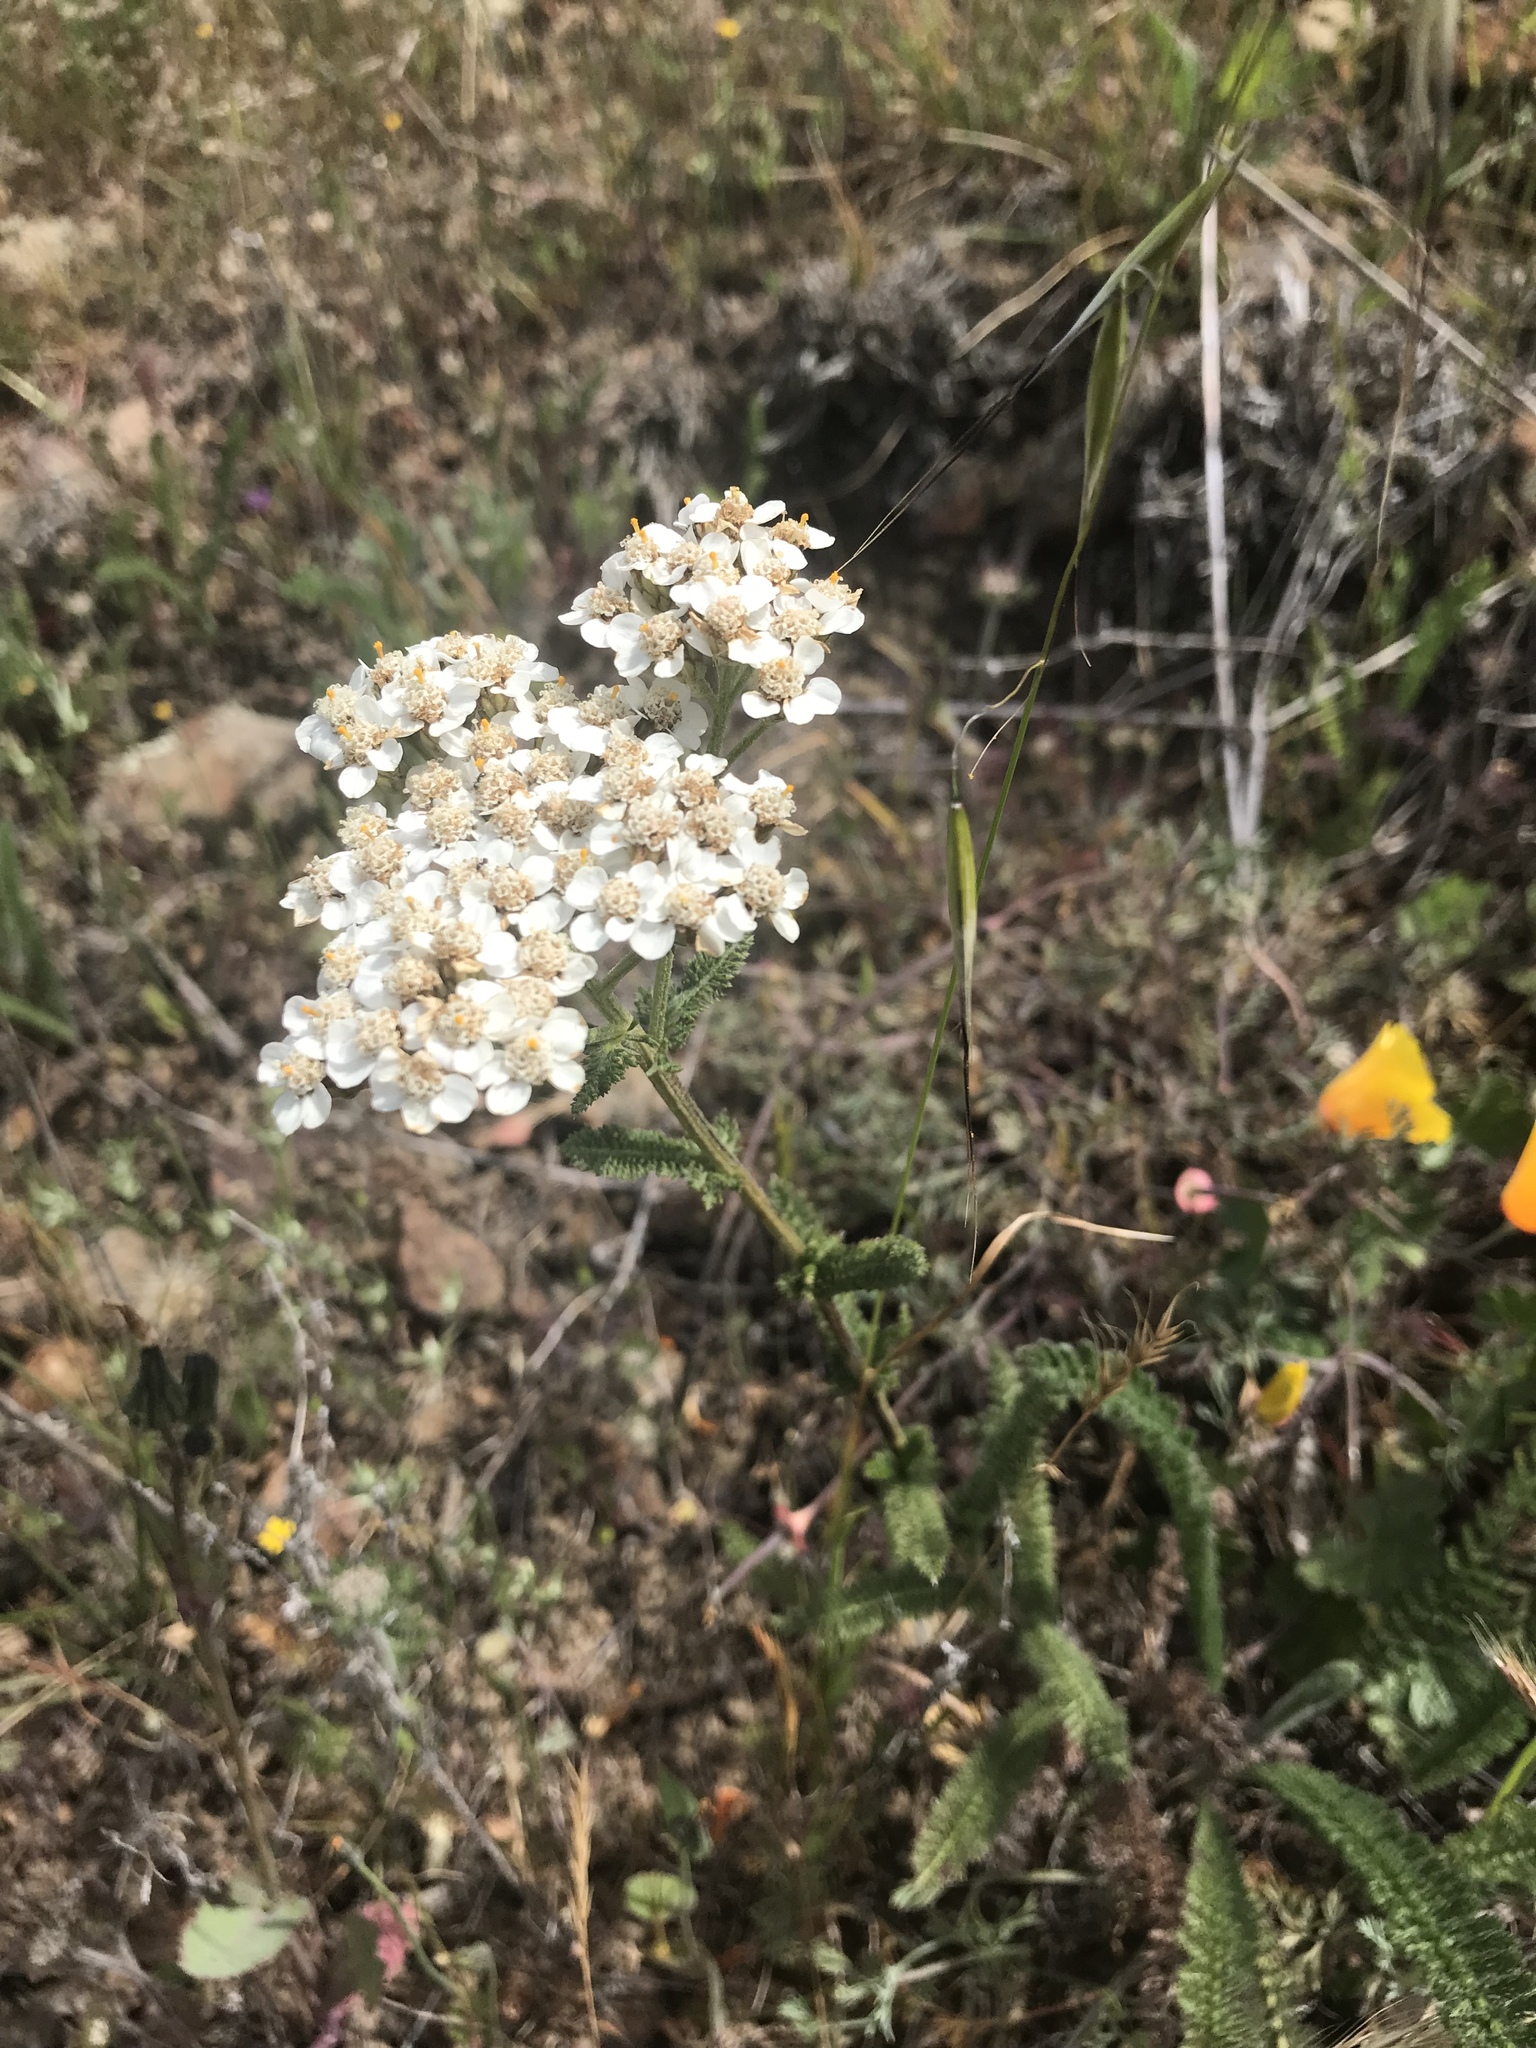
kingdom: Plantae
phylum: Tracheophyta
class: Magnoliopsida
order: Asterales
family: Asteraceae
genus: Achillea
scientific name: Achillea millefolium
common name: Yarrow
